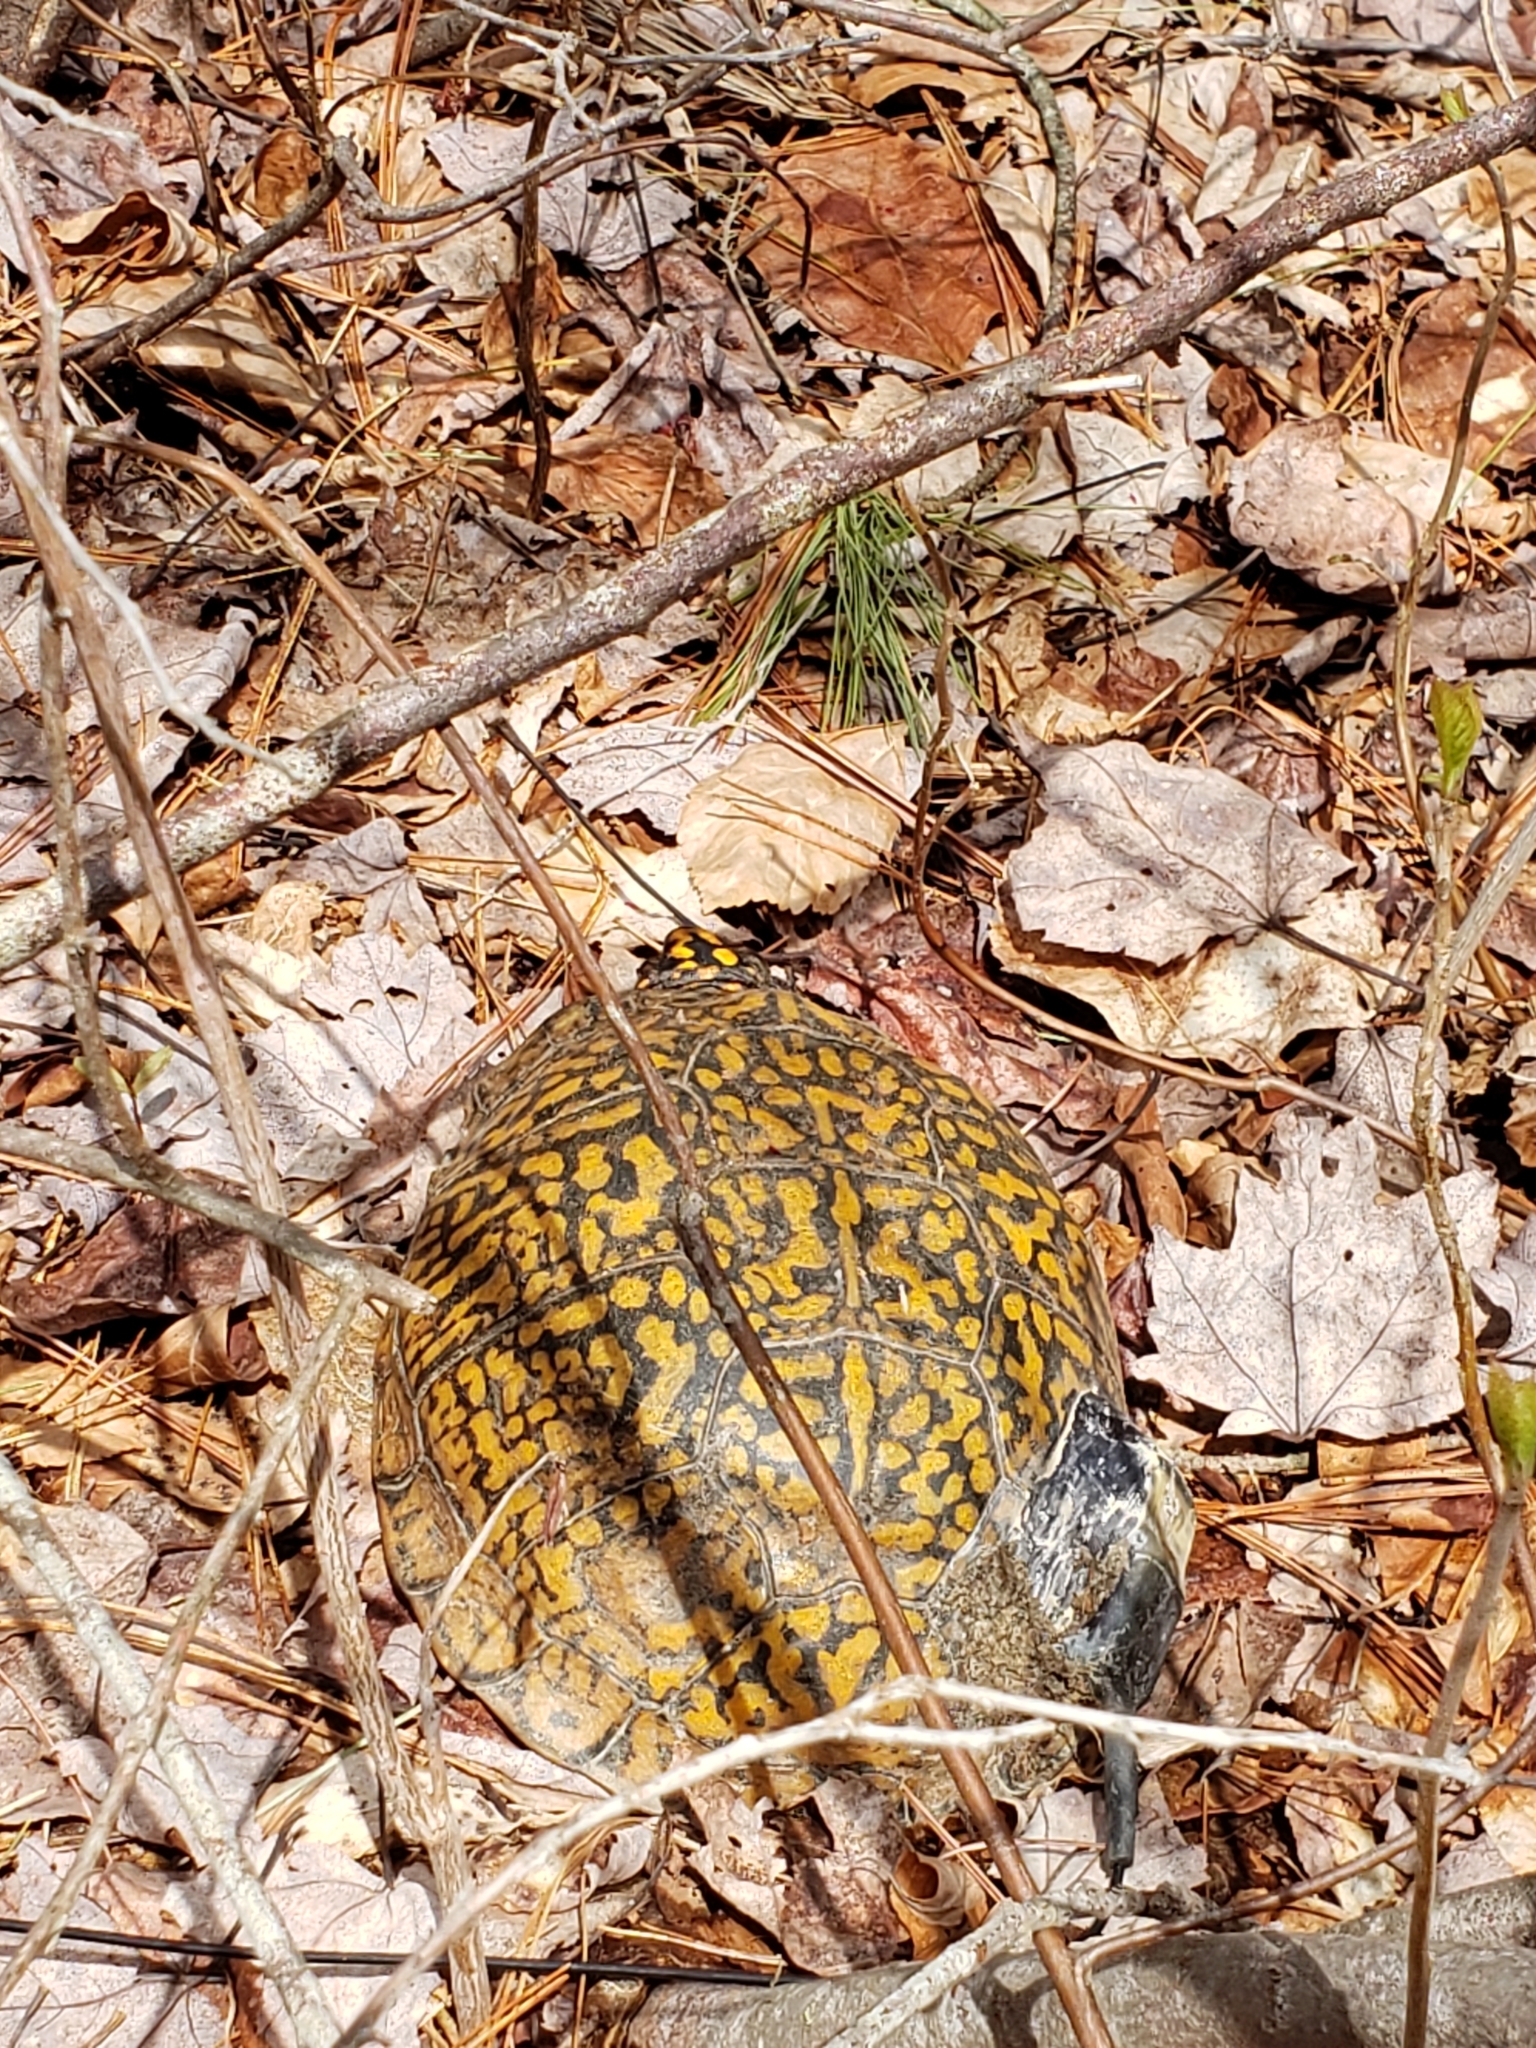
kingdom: Animalia
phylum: Chordata
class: Testudines
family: Emydidae
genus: Terrapene
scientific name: Terrapene carolina
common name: Common box turtle
